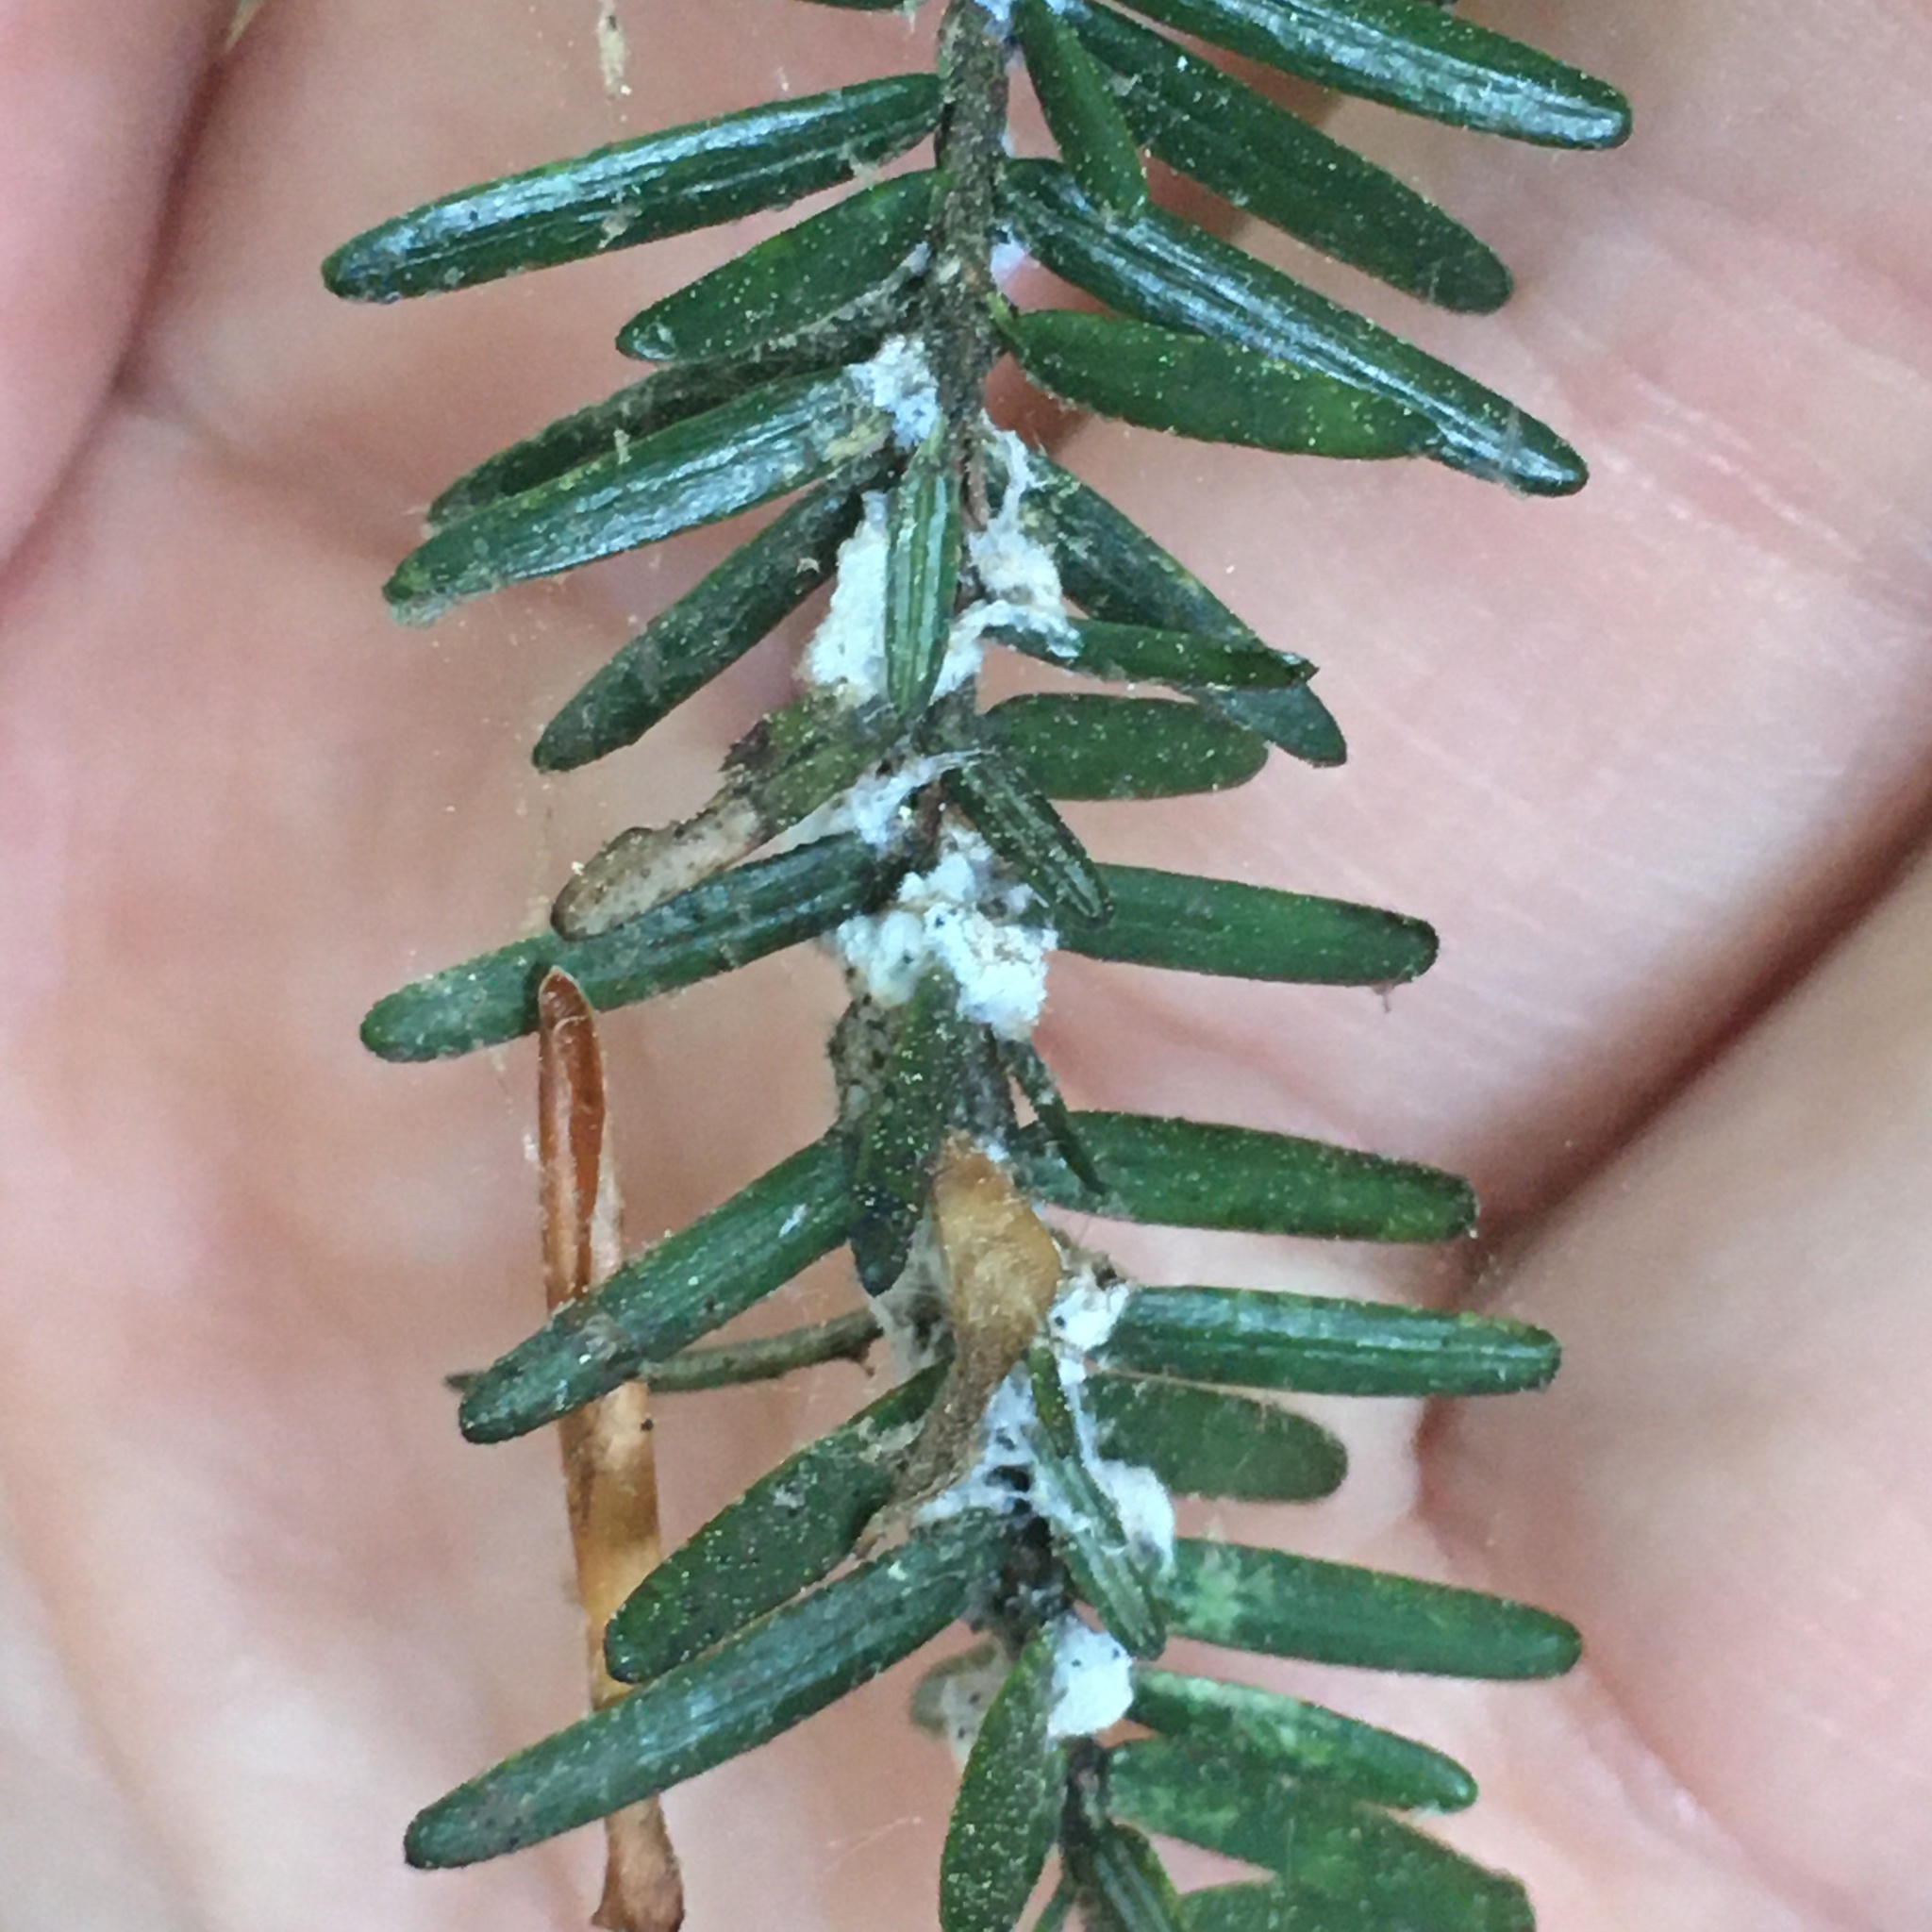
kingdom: Animalia
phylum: Arthropoda
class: Insecta
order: Hemiptera
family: Adelgidae
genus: Adelges
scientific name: Adelges tsugae
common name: Hemlock woolly adelgid
